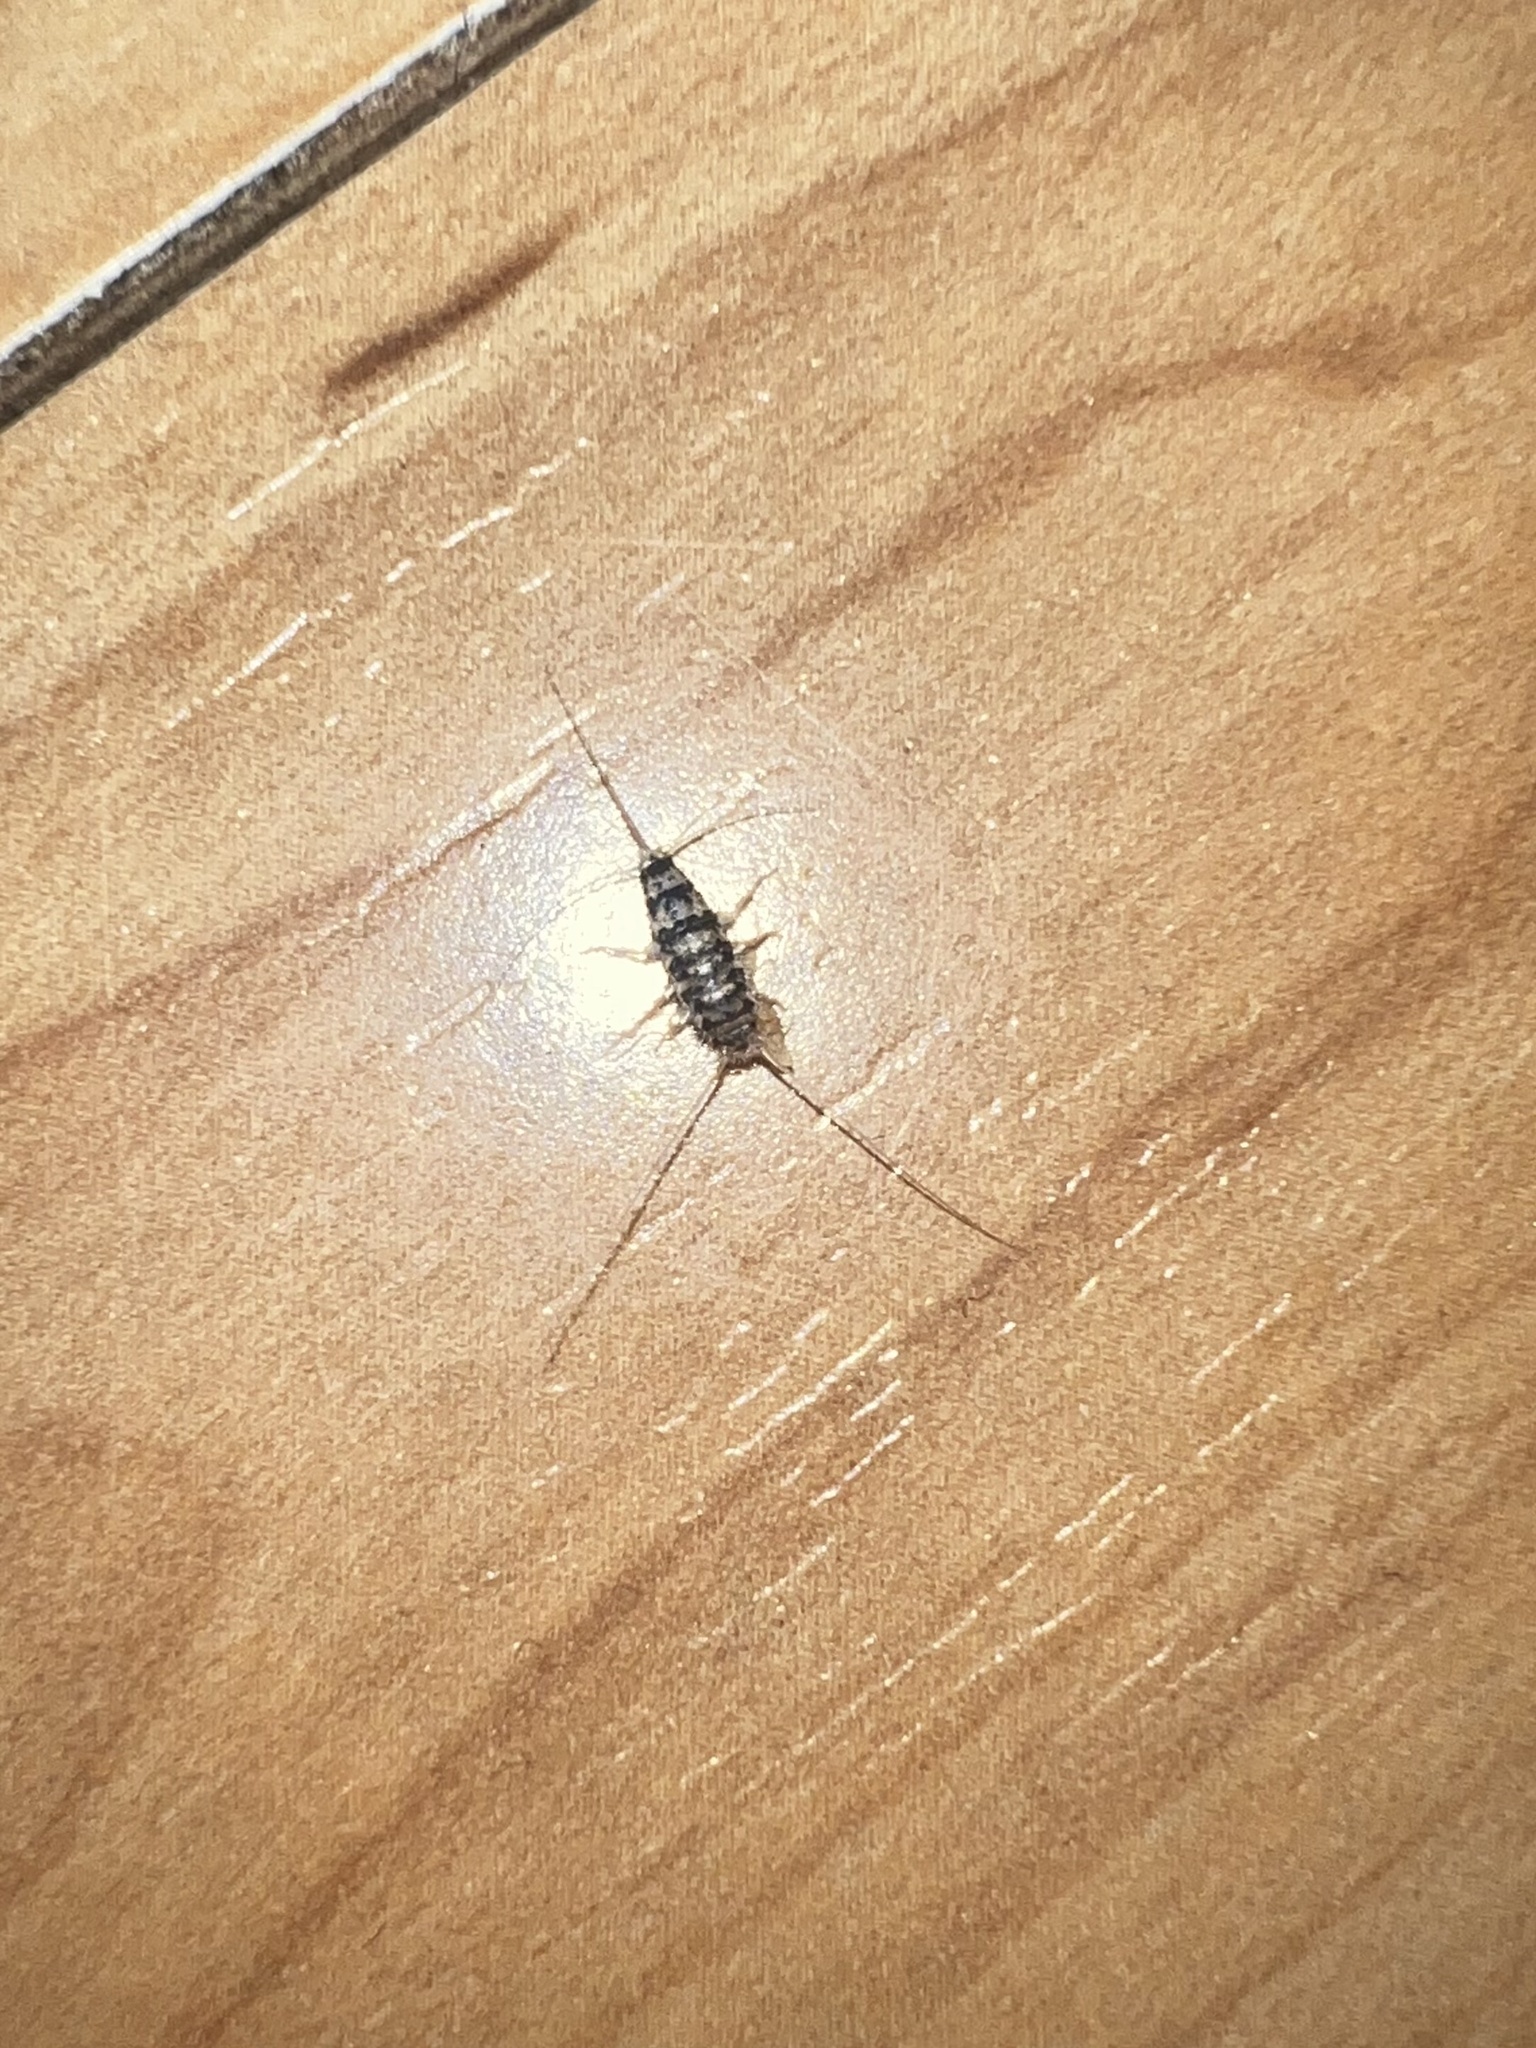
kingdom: Animalia
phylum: Arthropoda
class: Insecta
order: Zygentoma
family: Lepismatidae
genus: Thermobia
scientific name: Thermobia domestica
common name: Firebrat
